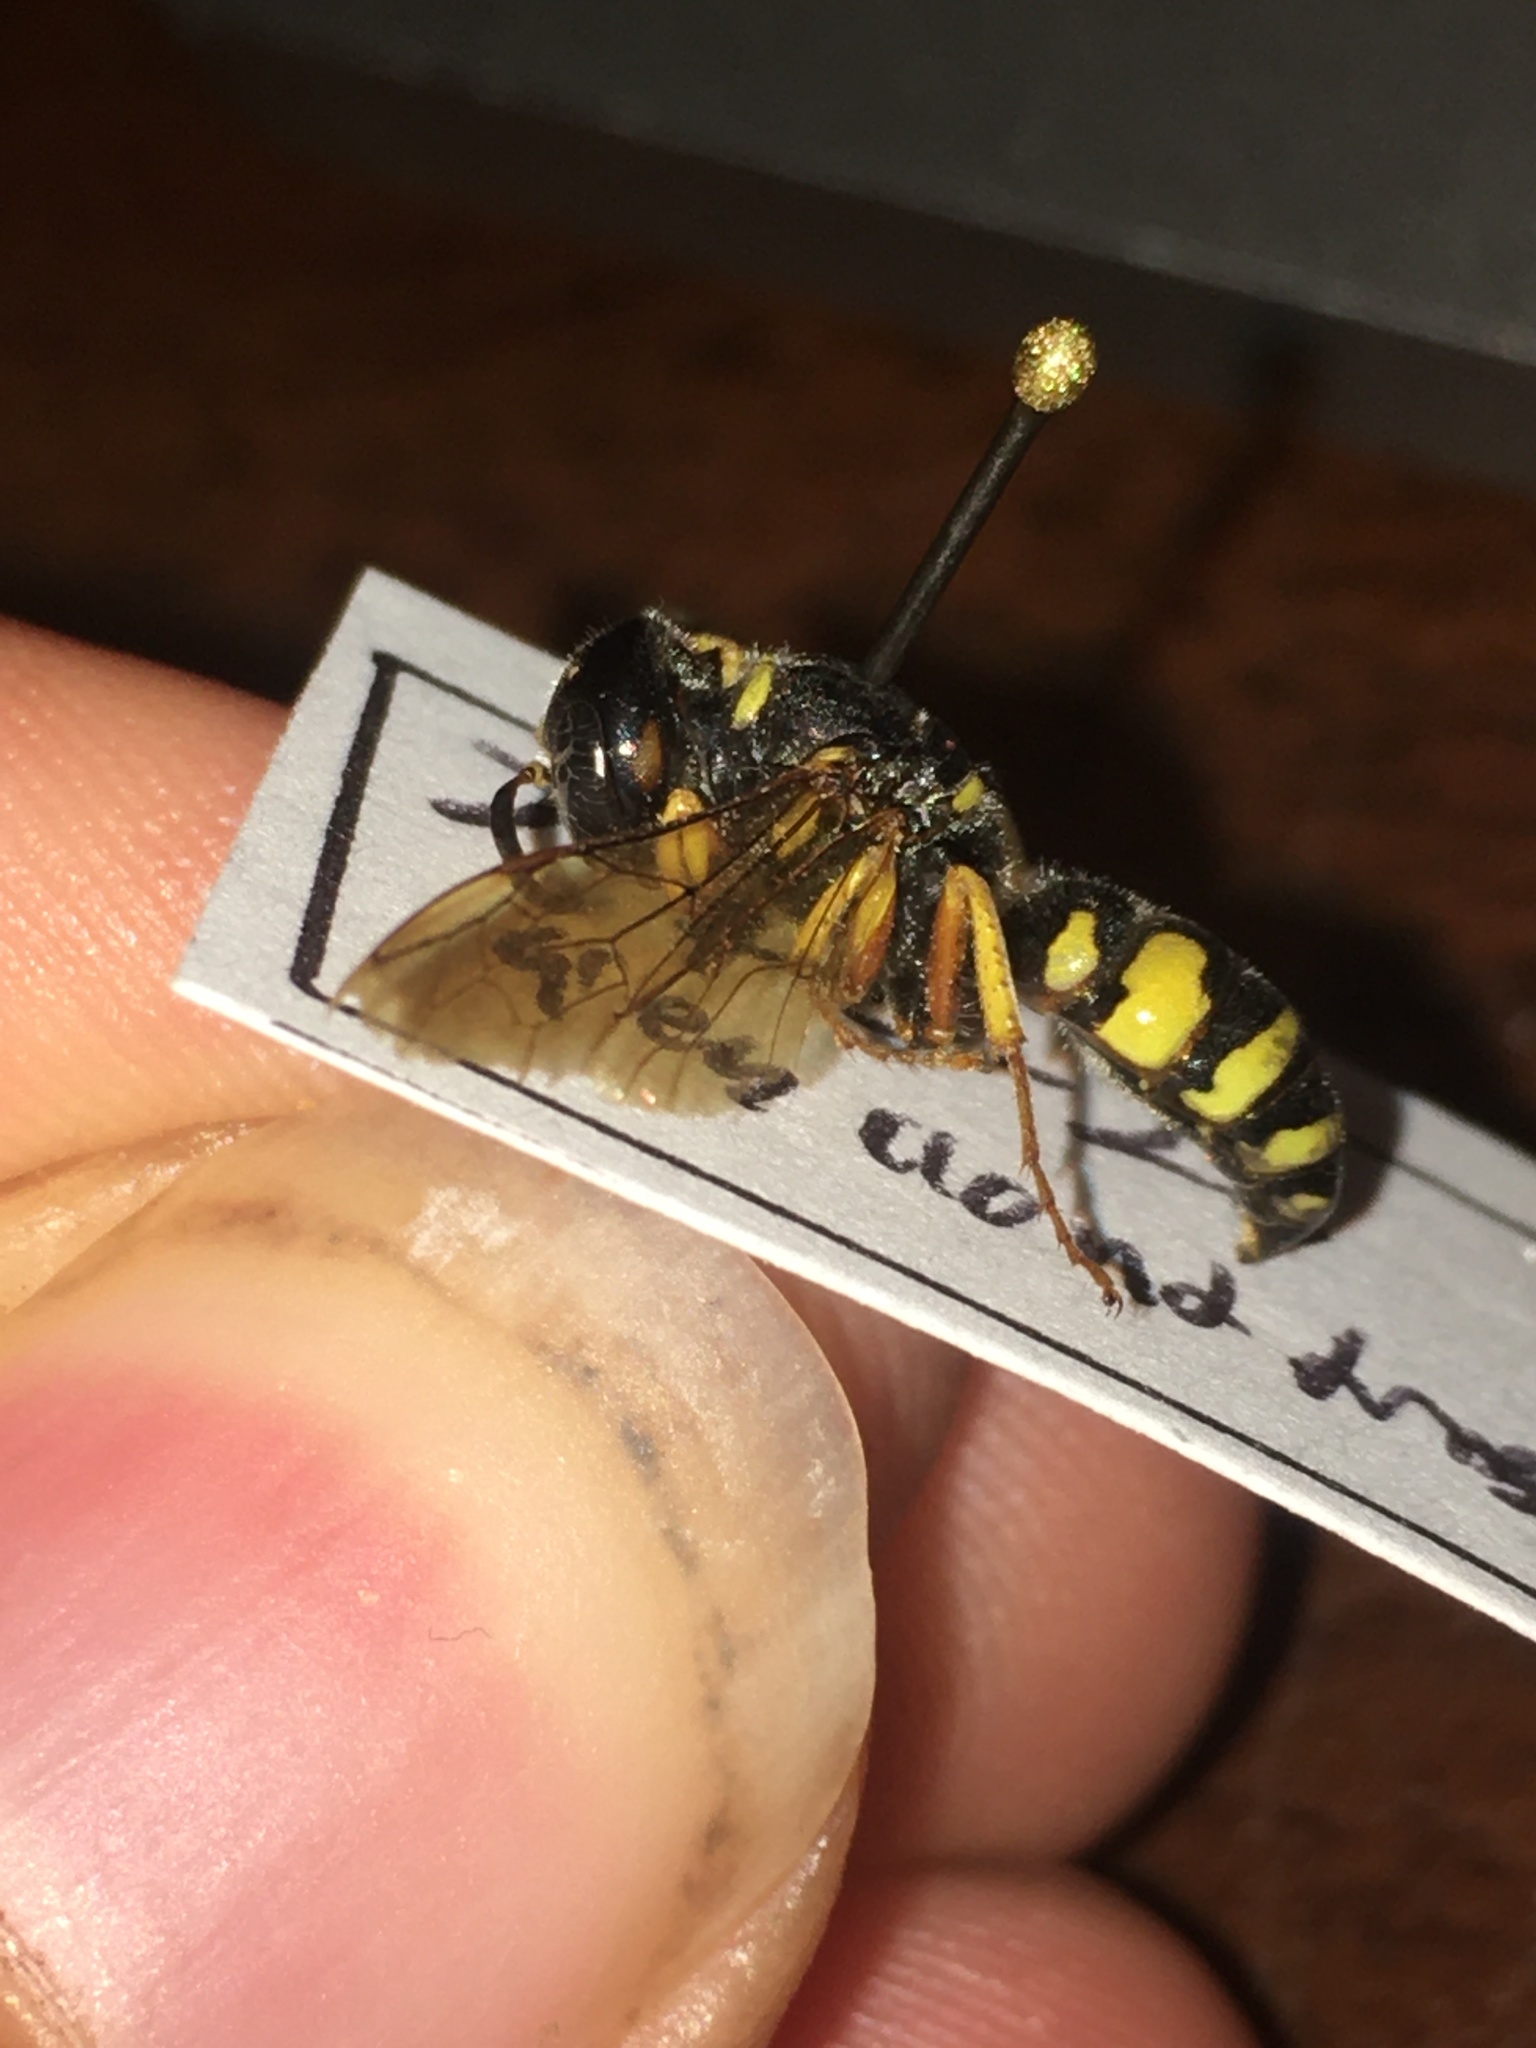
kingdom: Animalia
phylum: Arthropoda
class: Insecta
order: Hymenoptera
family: Crabronidae
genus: Philanthus
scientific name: Philanthus sanbornii
